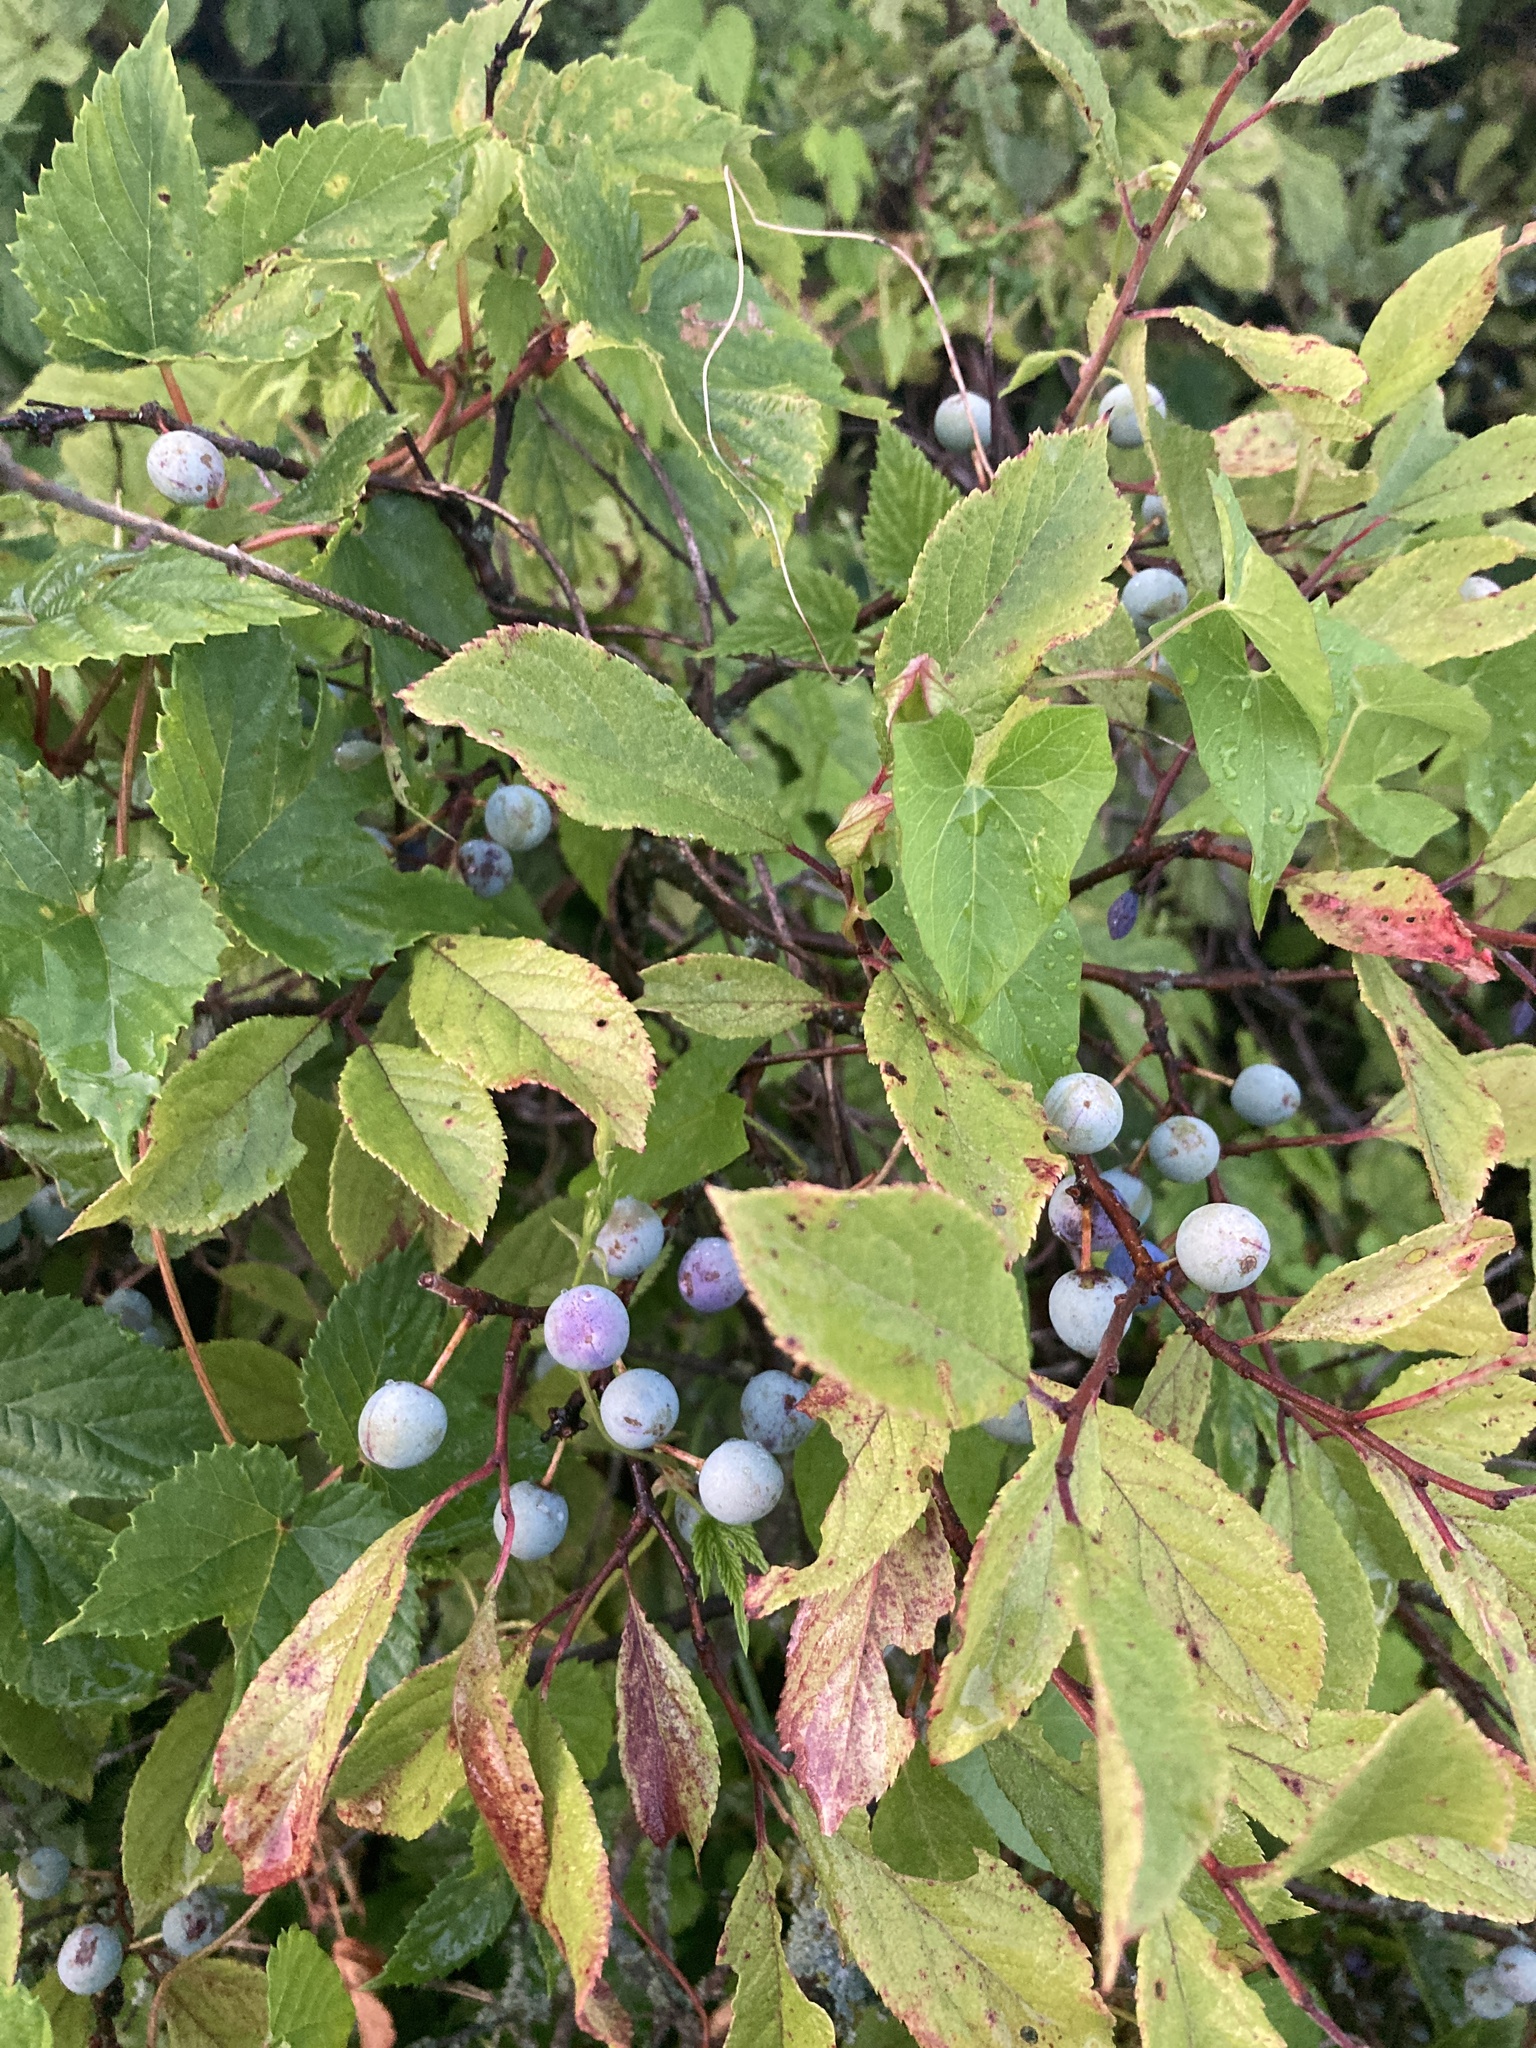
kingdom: Plantae
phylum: Tracheophyta
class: Magnoliopsida
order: Rosales
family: Rosaceae
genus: Prunus
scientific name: Prunus spinosa
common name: Blackthorn
